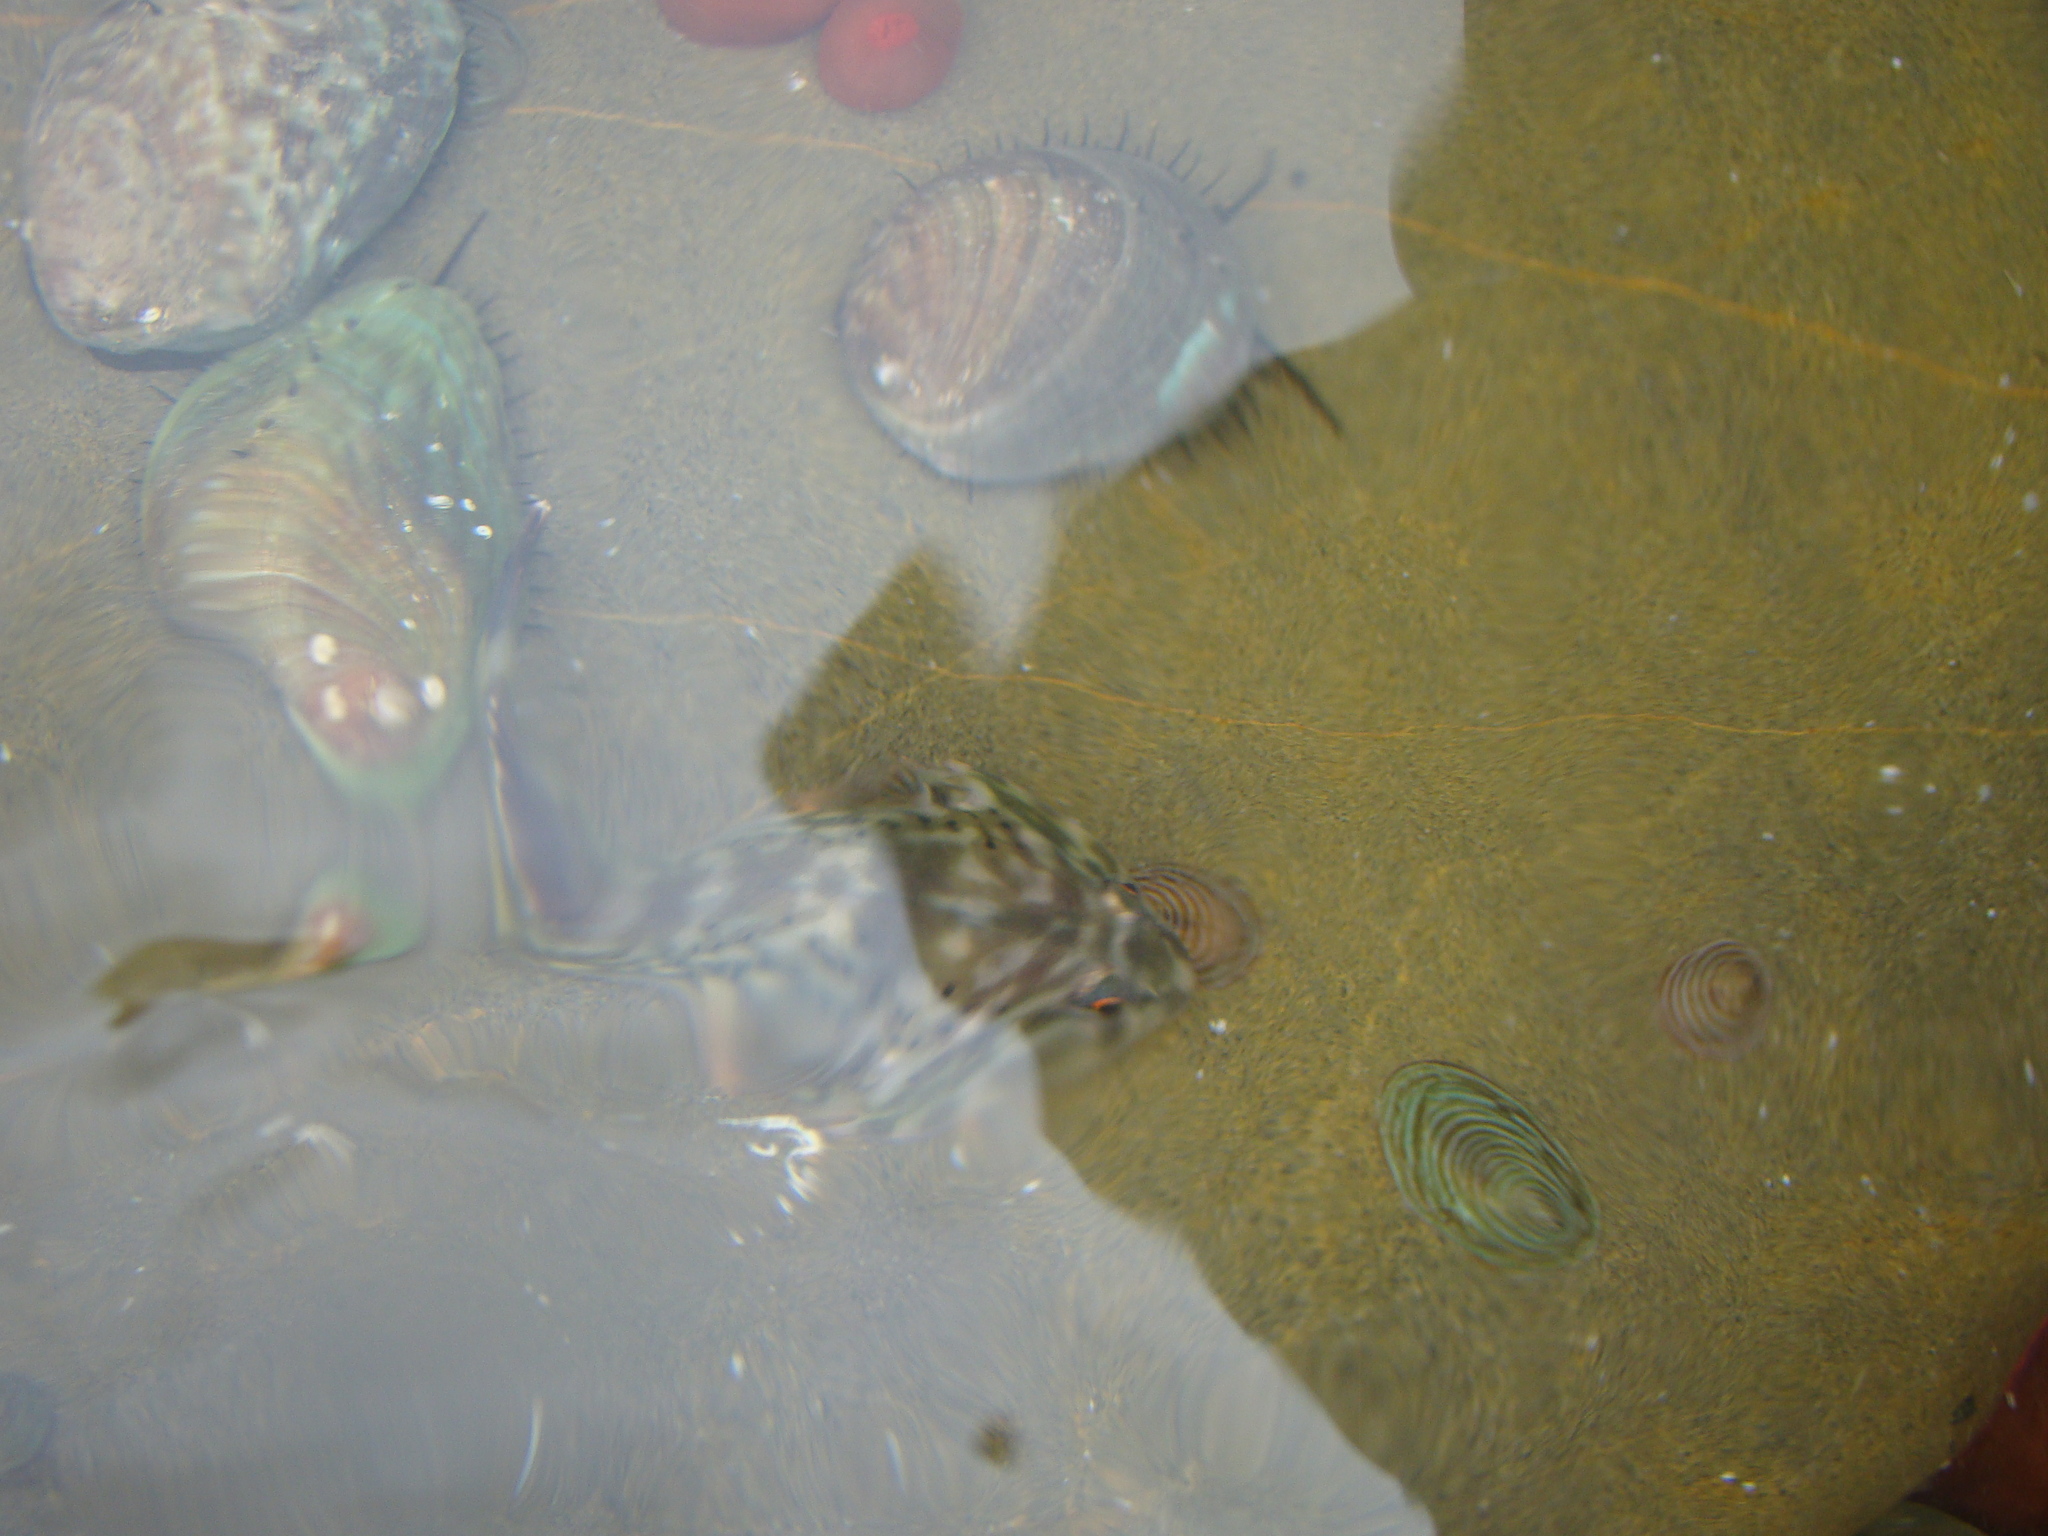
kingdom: Animalia
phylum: Chordata
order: Gobiesociformes
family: Gobiesocidae
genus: Diplocrepis
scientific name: Diplocrepis puniceus
